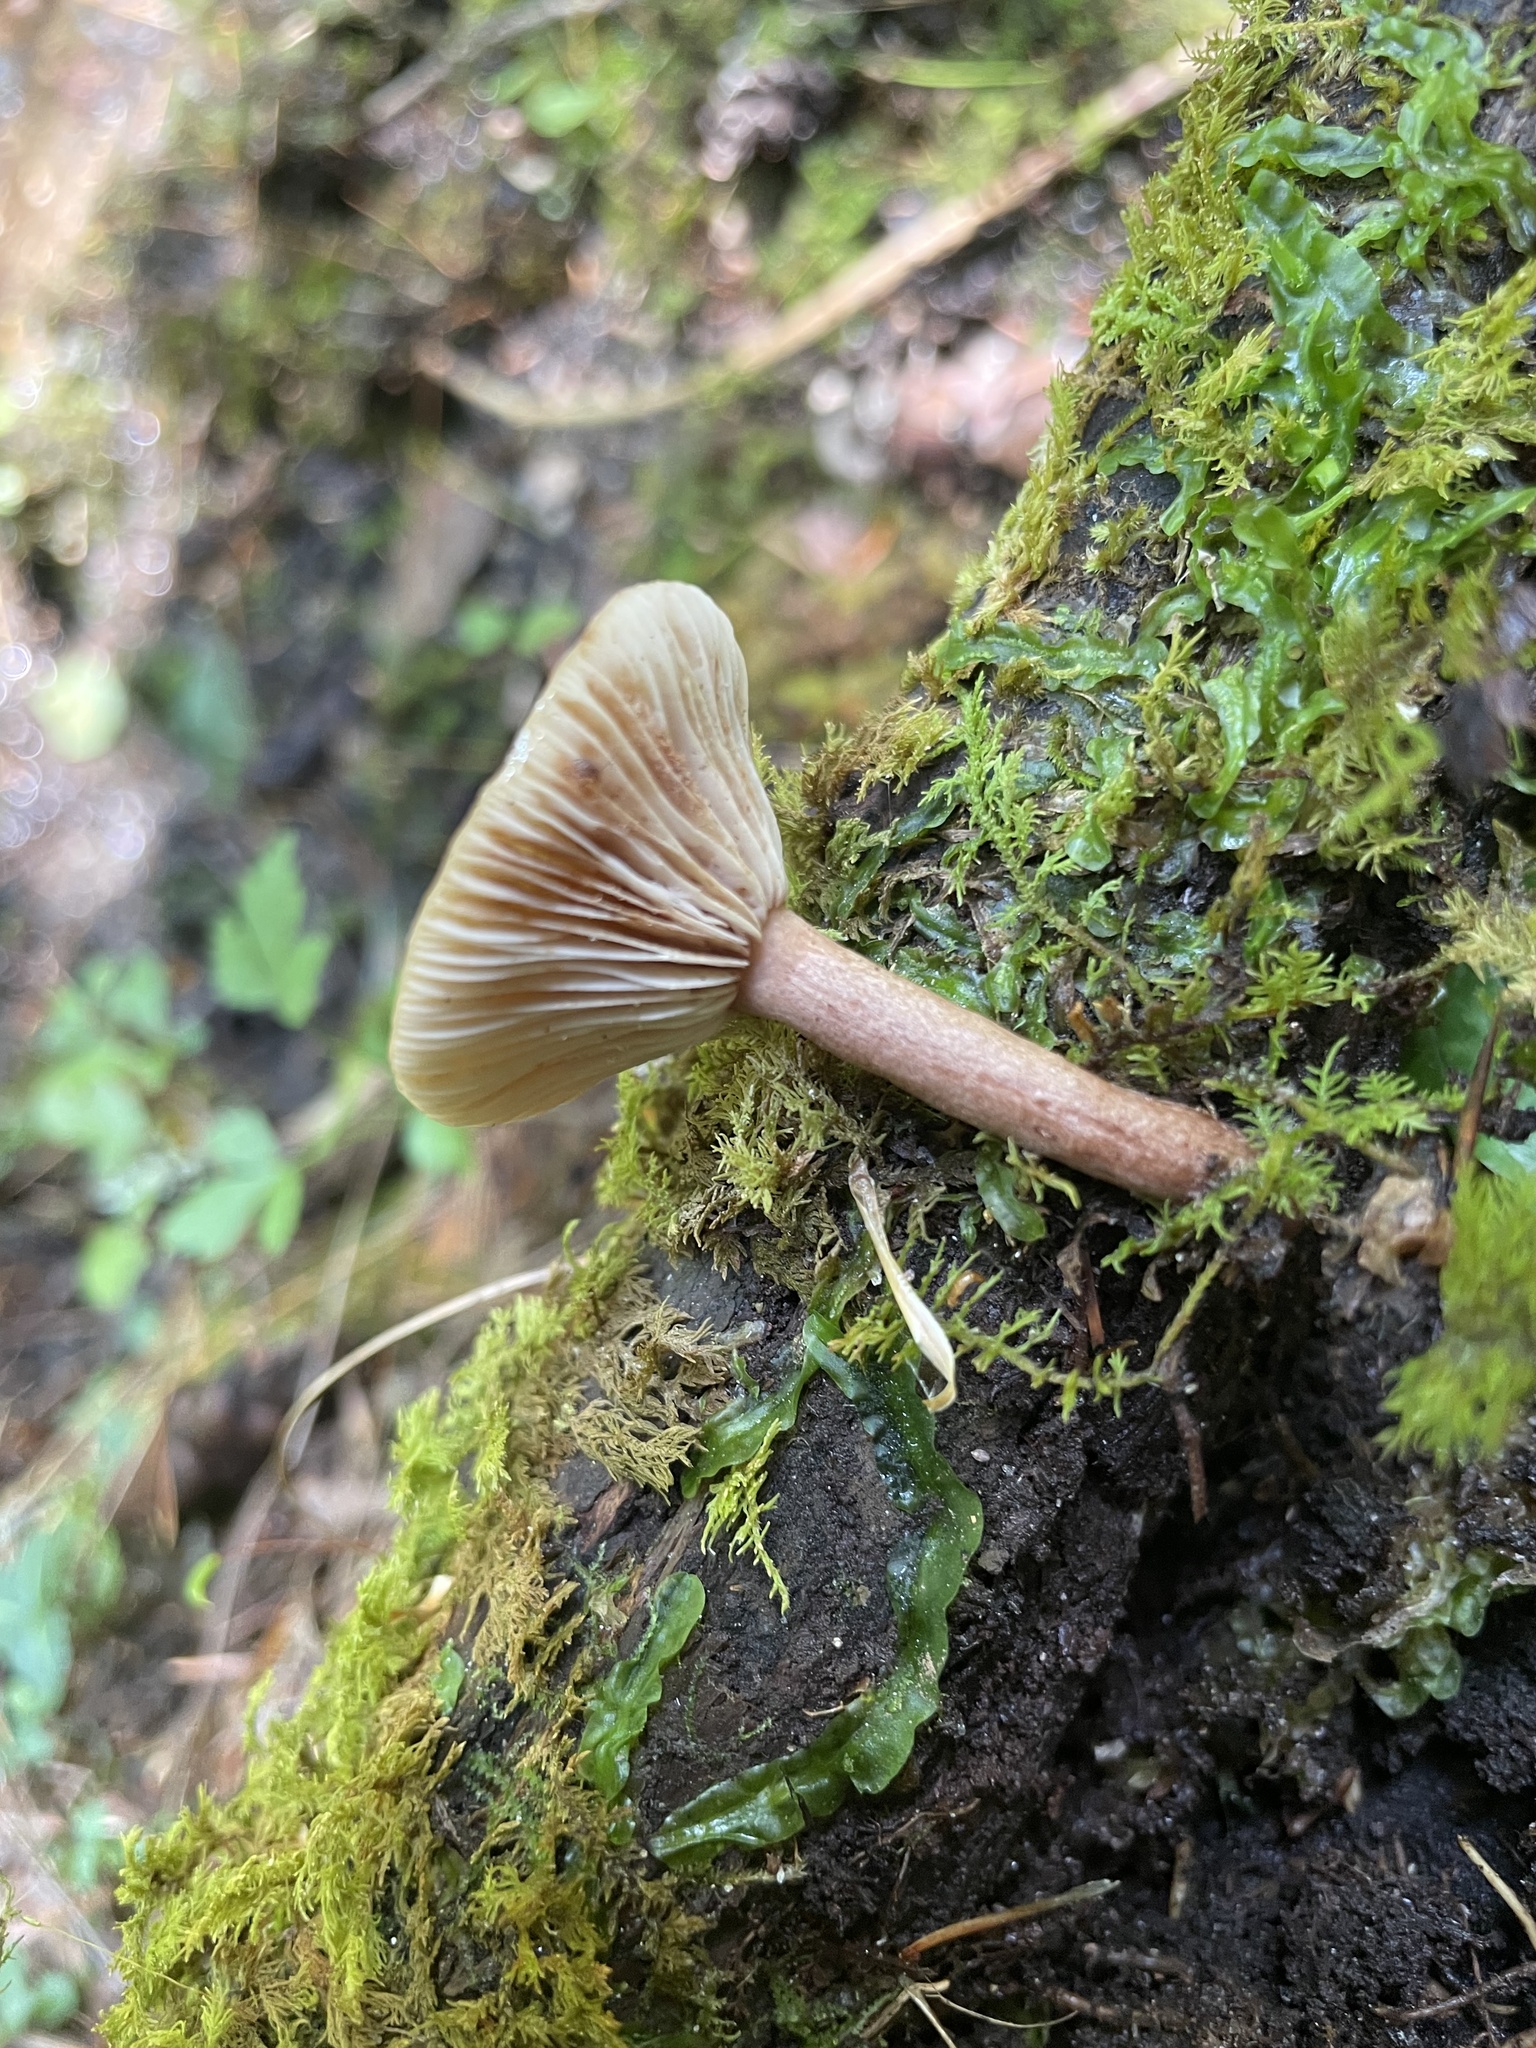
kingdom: Fungi
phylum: Basidiomycota
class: Agaricomycetes
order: Russulales
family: Russulaceae
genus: Lactarius
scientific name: Lactarius camphoratus
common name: Curry milkcap
